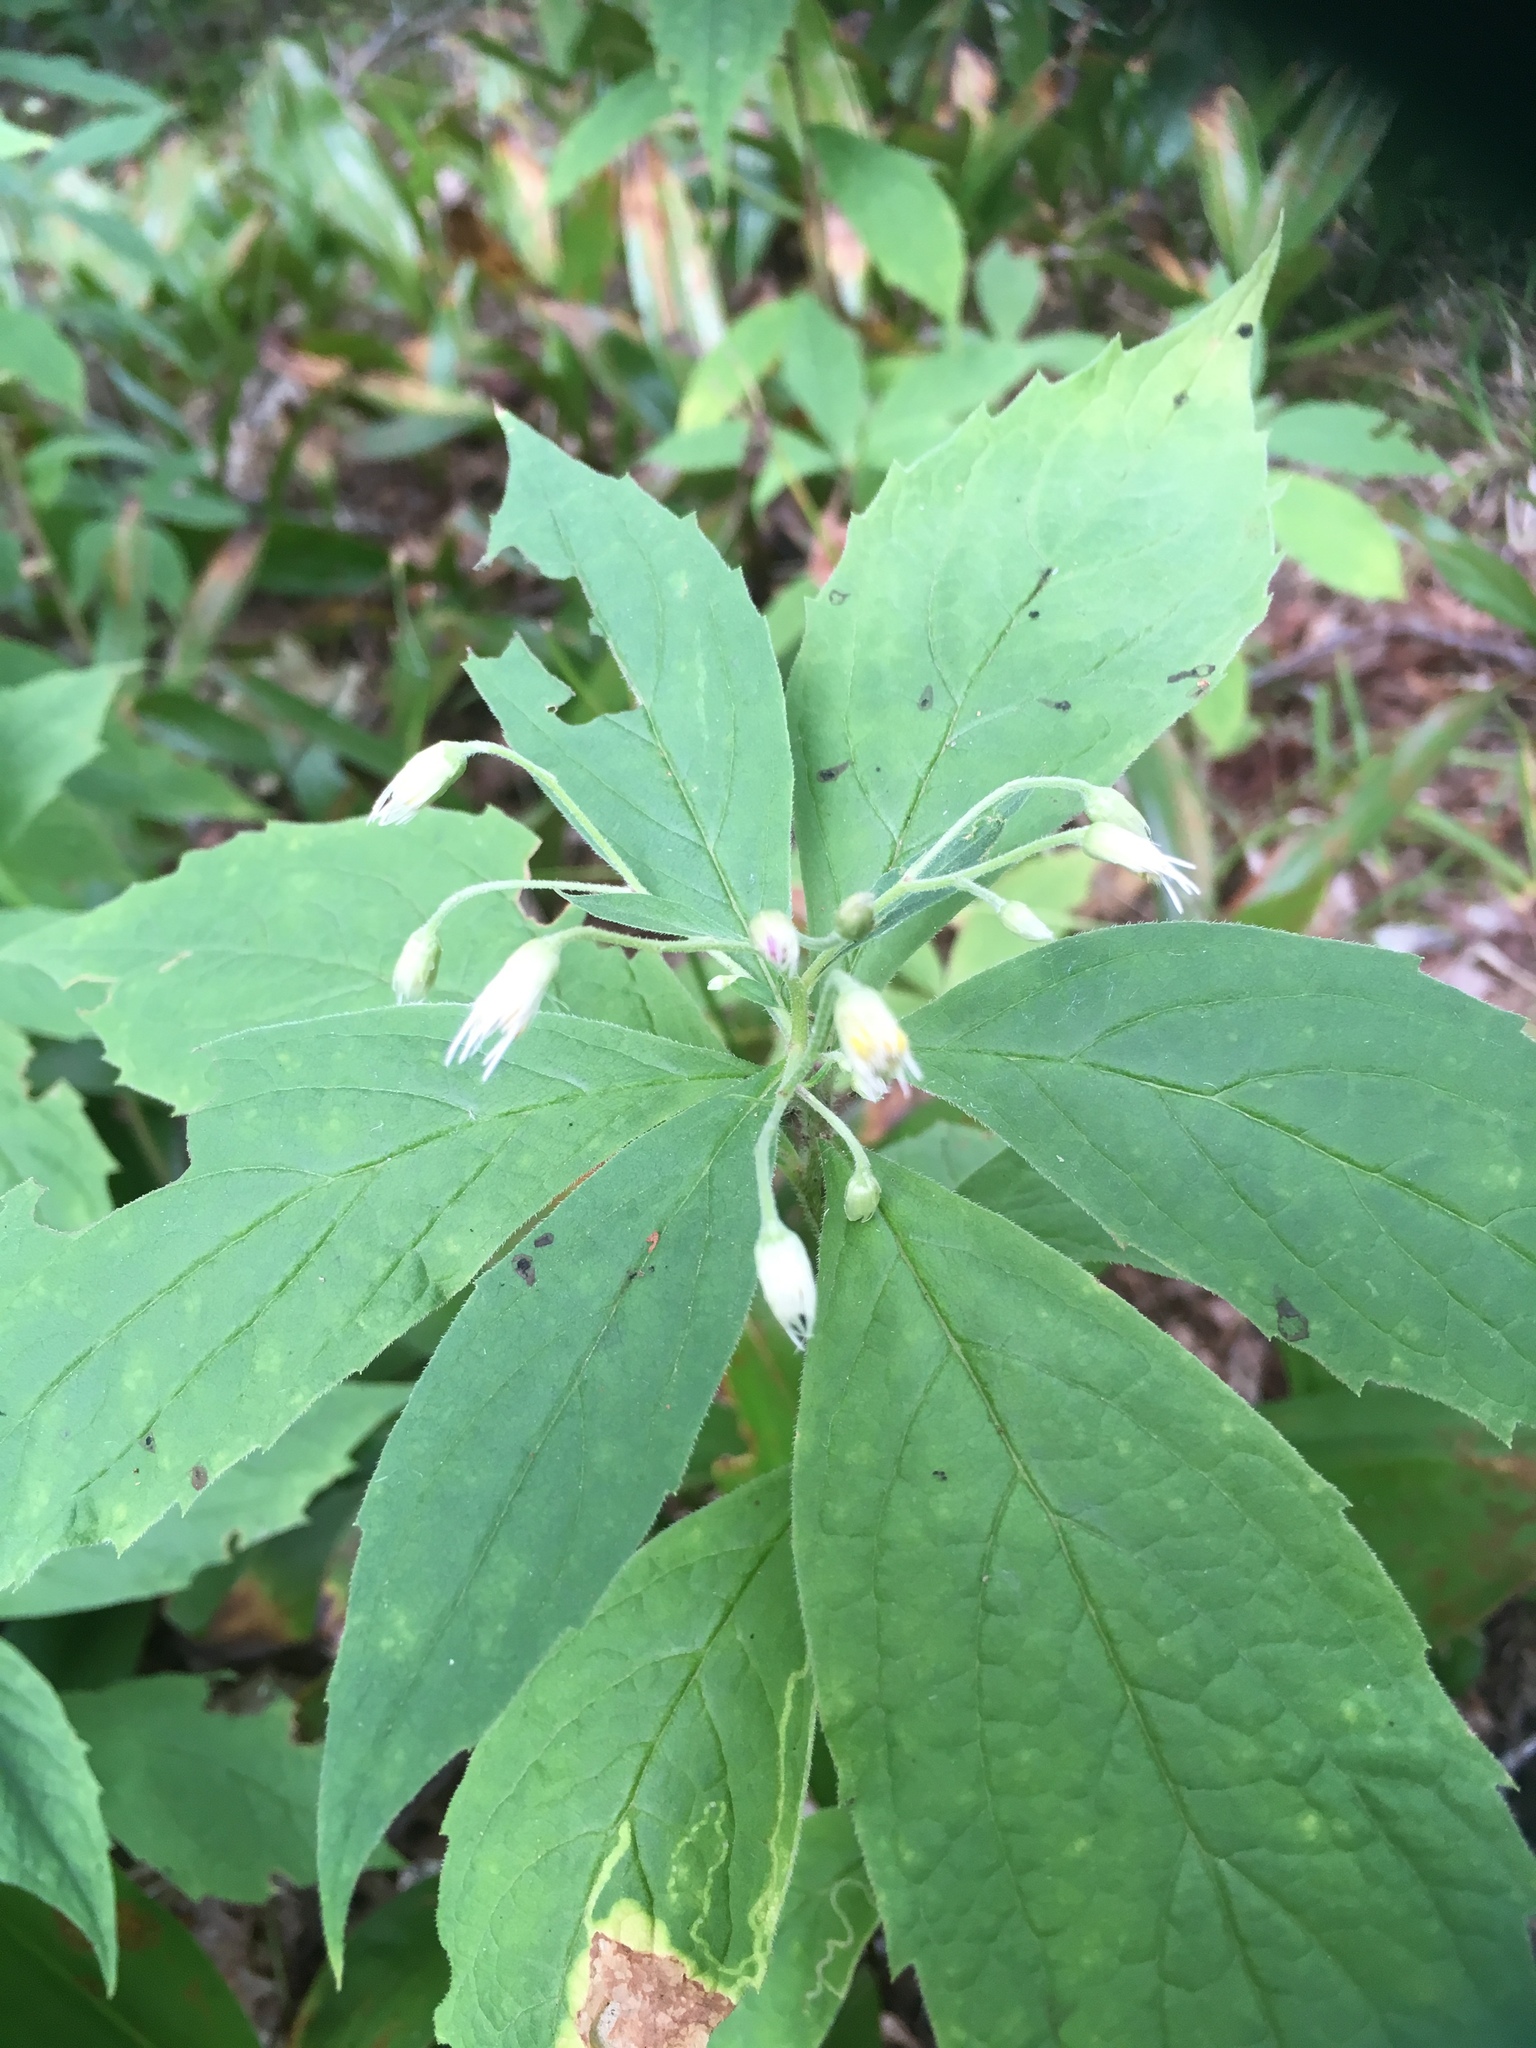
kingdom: Plantae
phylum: Tracheophyta
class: Magnoliopsida
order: Asterales
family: Asteraceae
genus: Oclemena
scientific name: Oclemena acuminata
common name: Mountain aster
